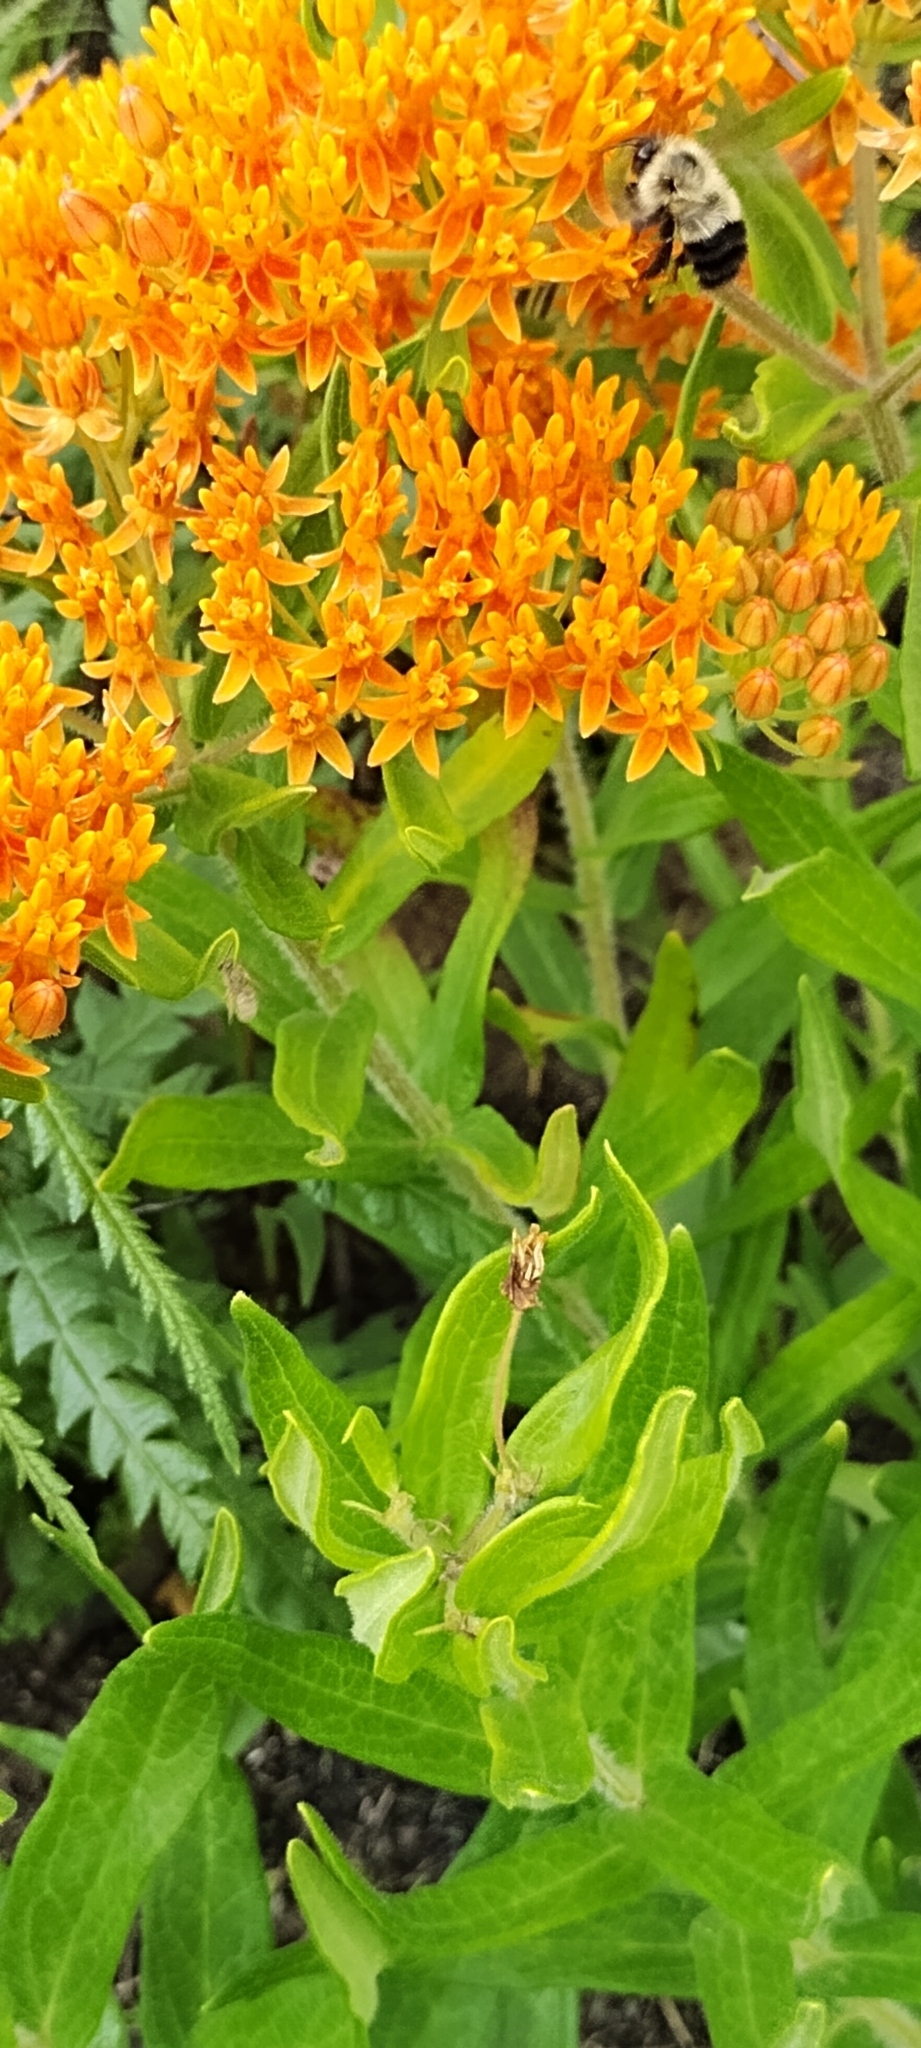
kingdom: Plantae
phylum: Tracheophyta
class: Magnoliopsida
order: Gentianales
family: Apocynaceae
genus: Asclepias
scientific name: Asclepias tuberosa
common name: Butterfly milkweed
